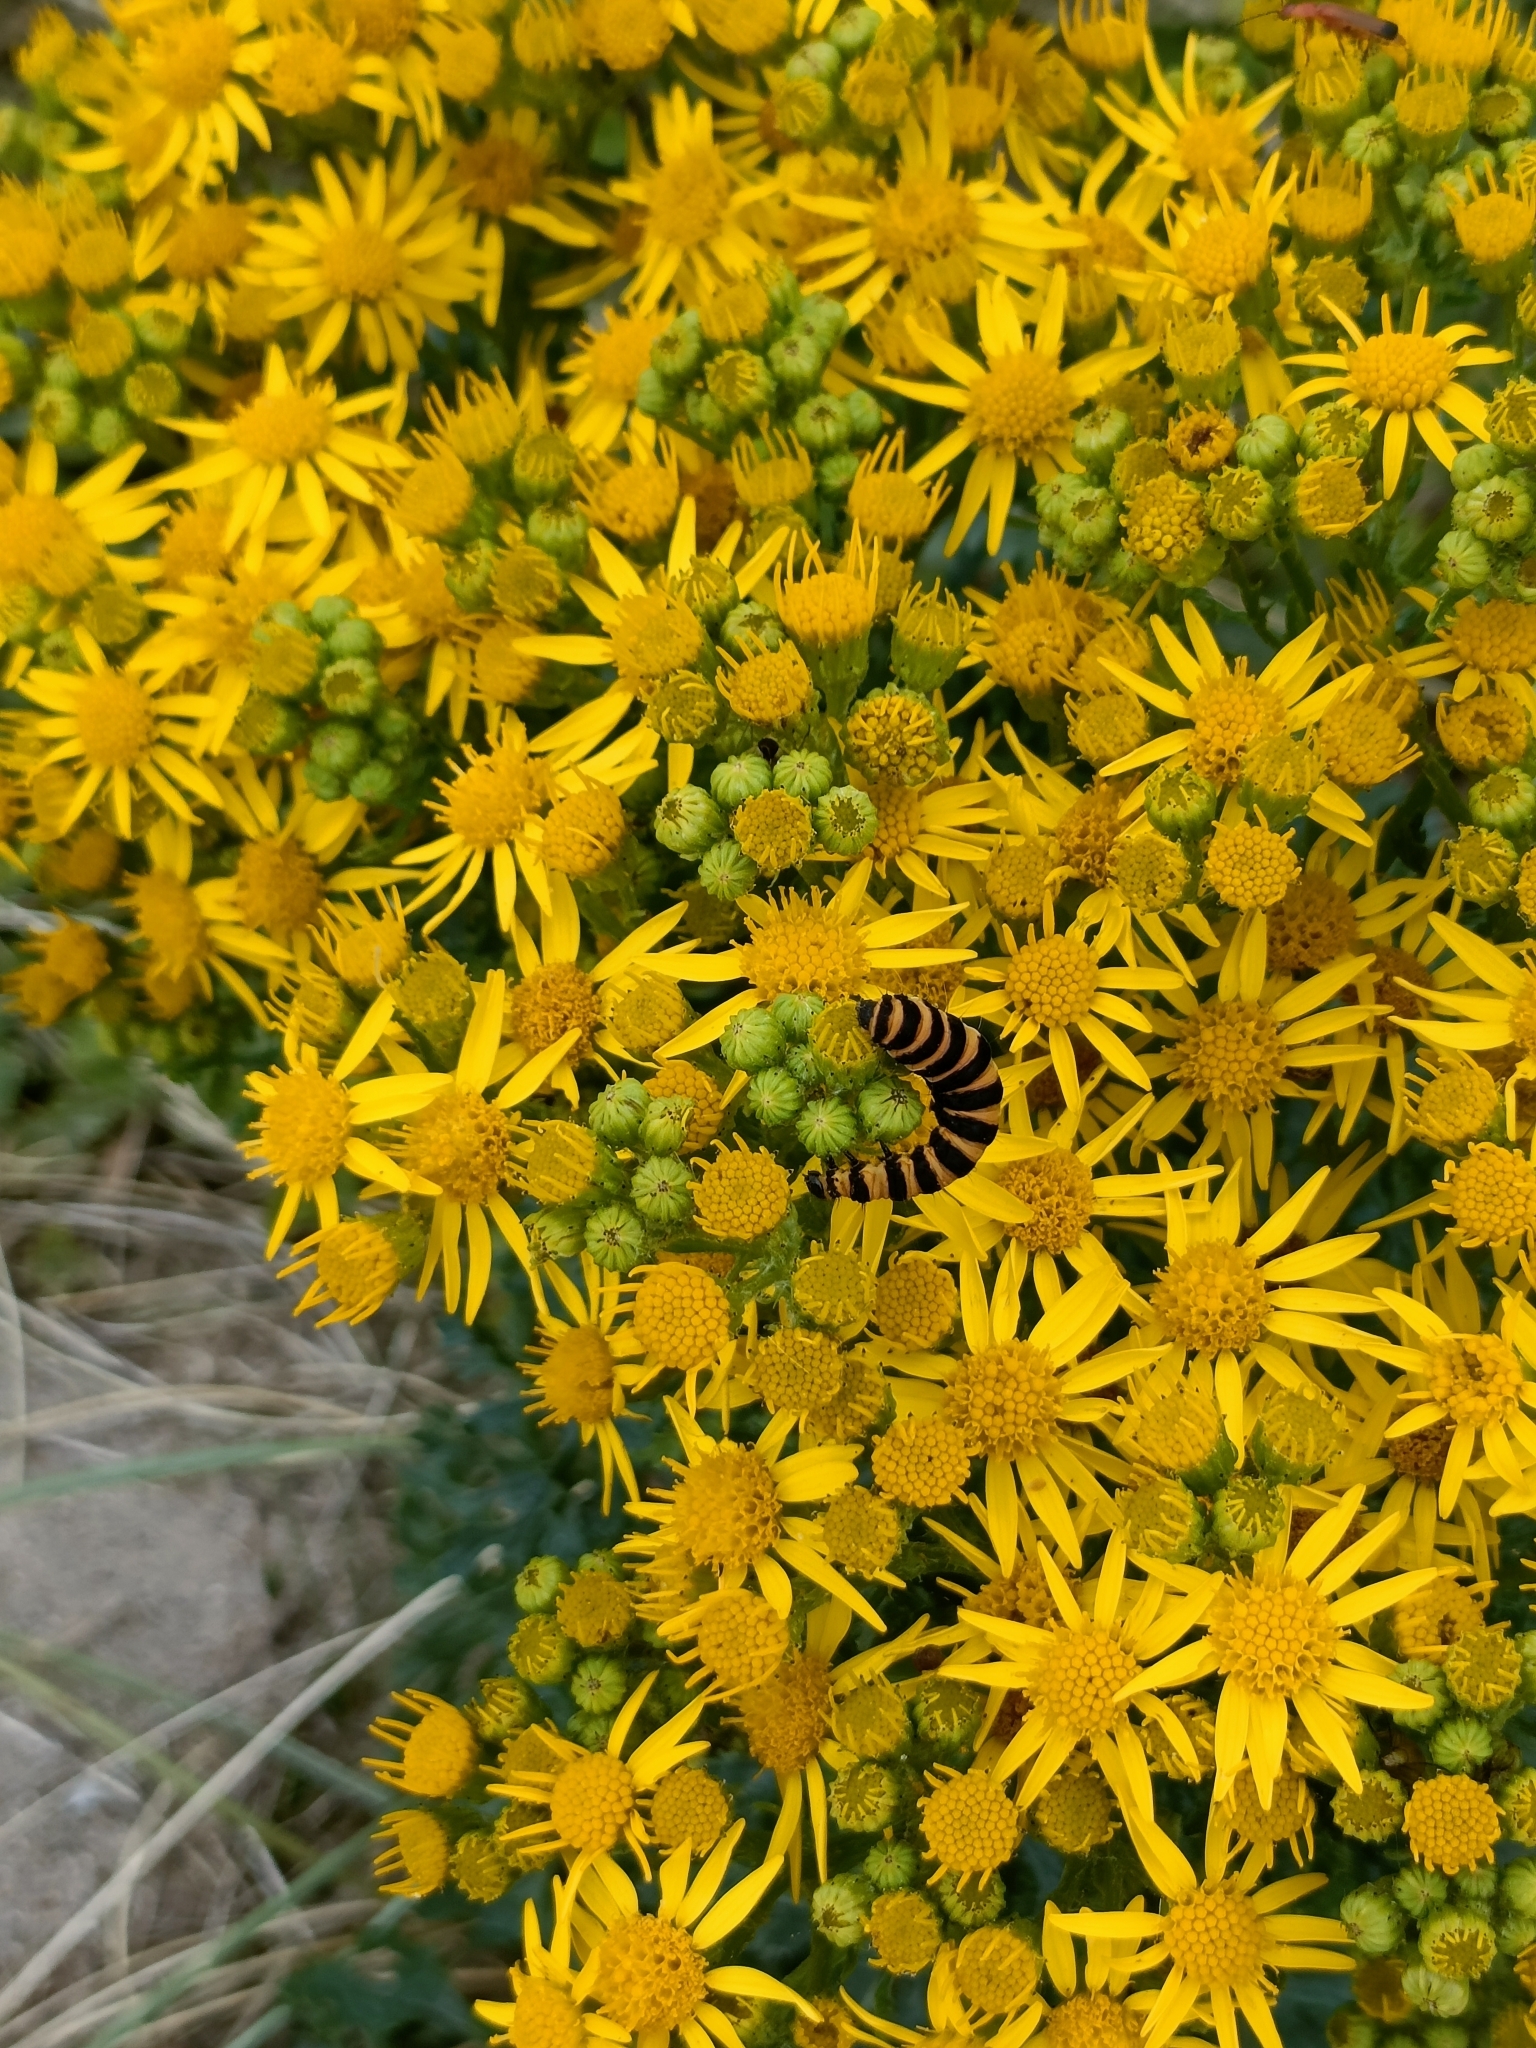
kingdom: Animalia
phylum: Arthropoda
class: Insecta
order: Lepidoptera
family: Erebidae
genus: Tyria
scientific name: Tyria jacobaeae
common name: Cinnabar
